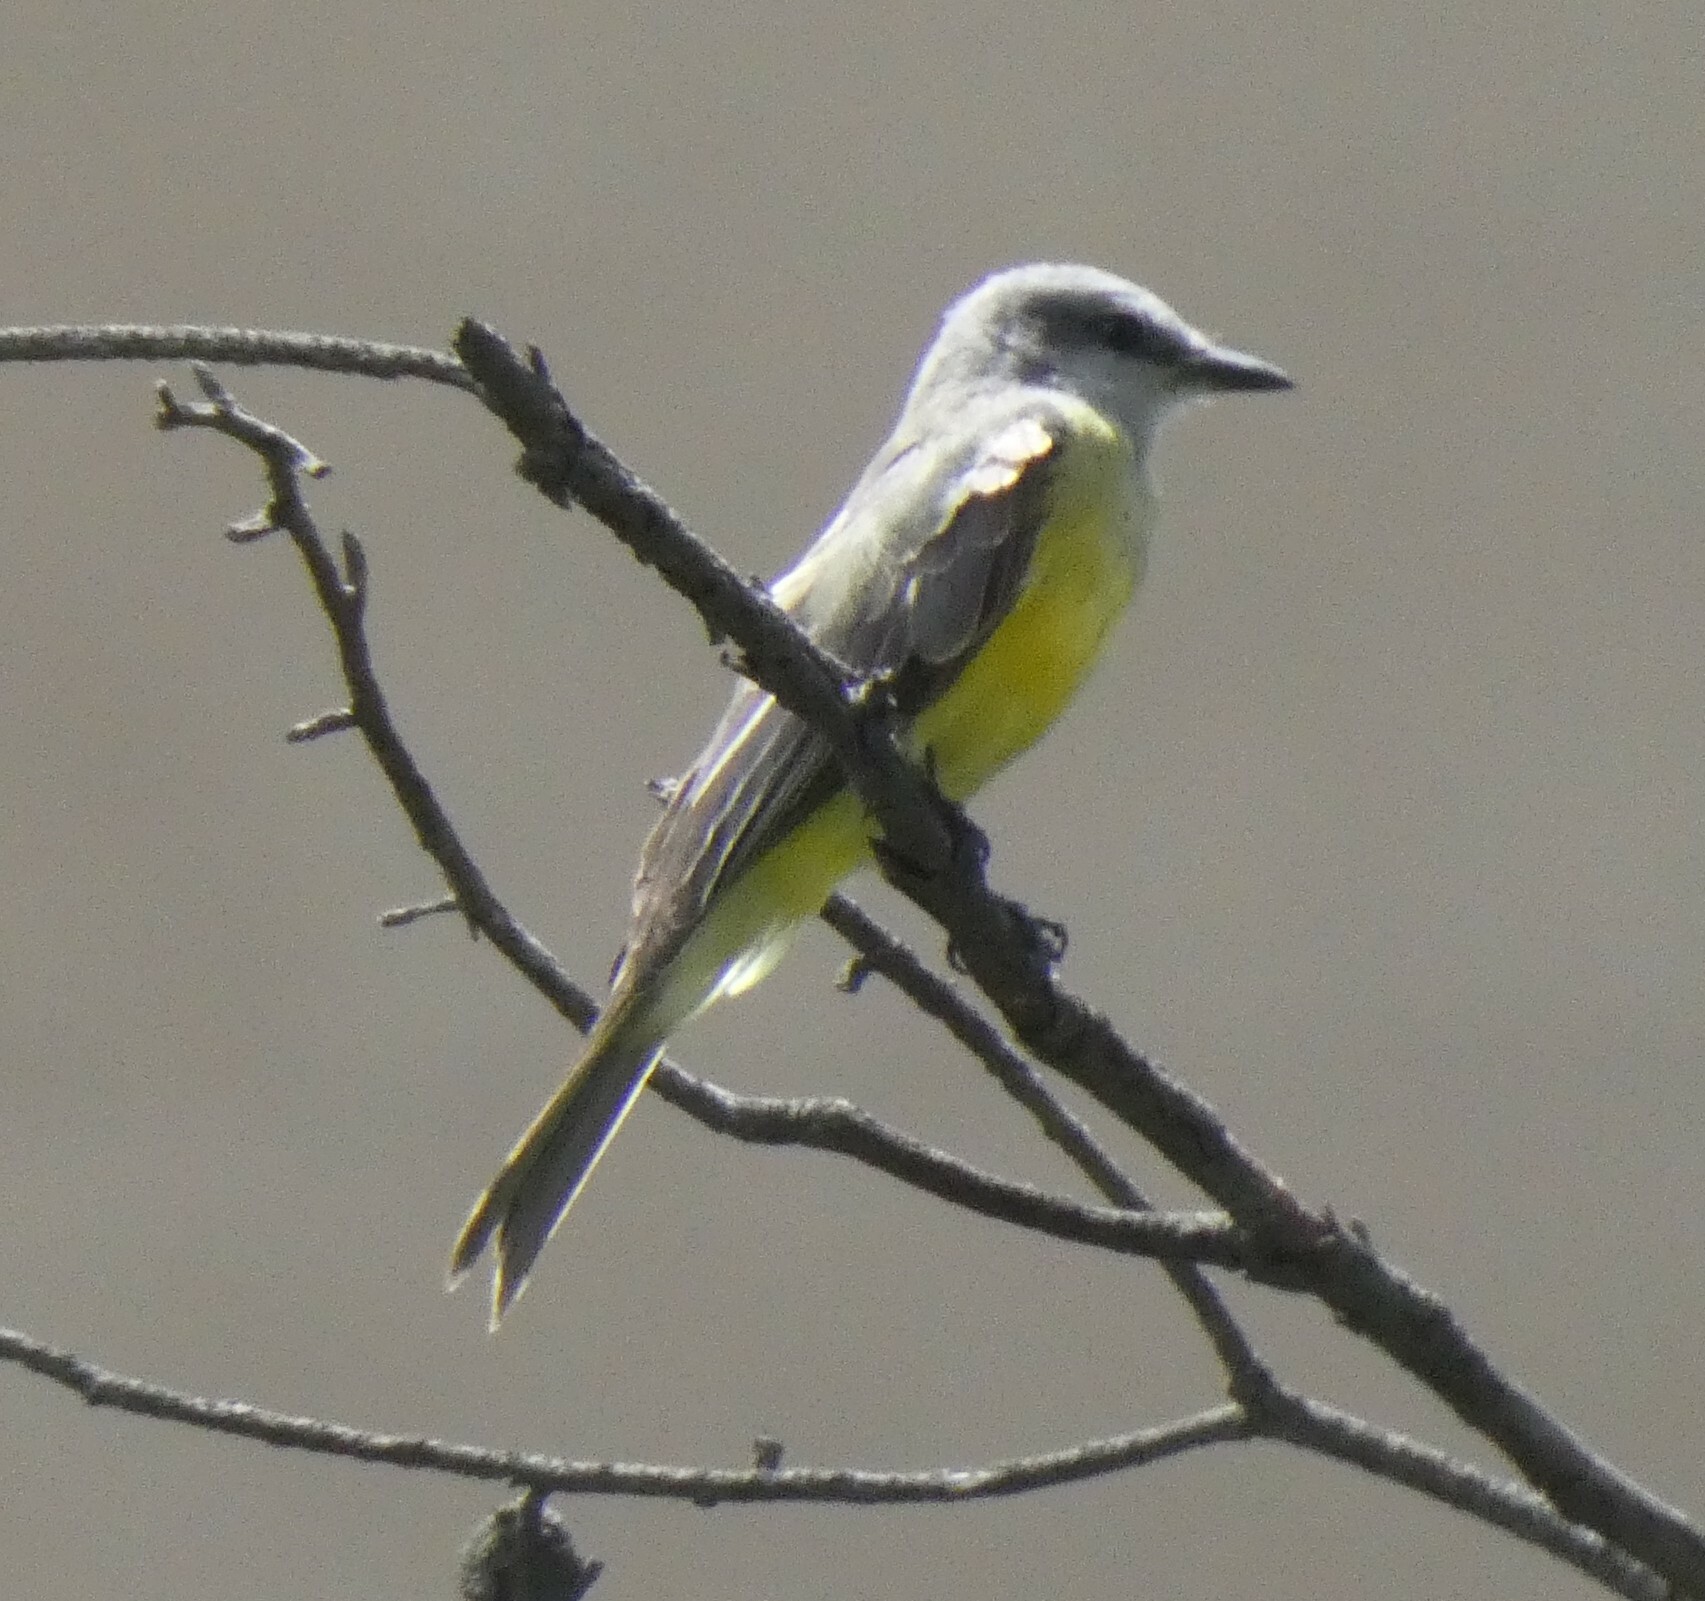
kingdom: Animalia
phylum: Chordata
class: Aves
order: Passeriformes
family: Tyrannidae
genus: Tyrannus
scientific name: Tyrannus melancholicus
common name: Tropical kingbird
